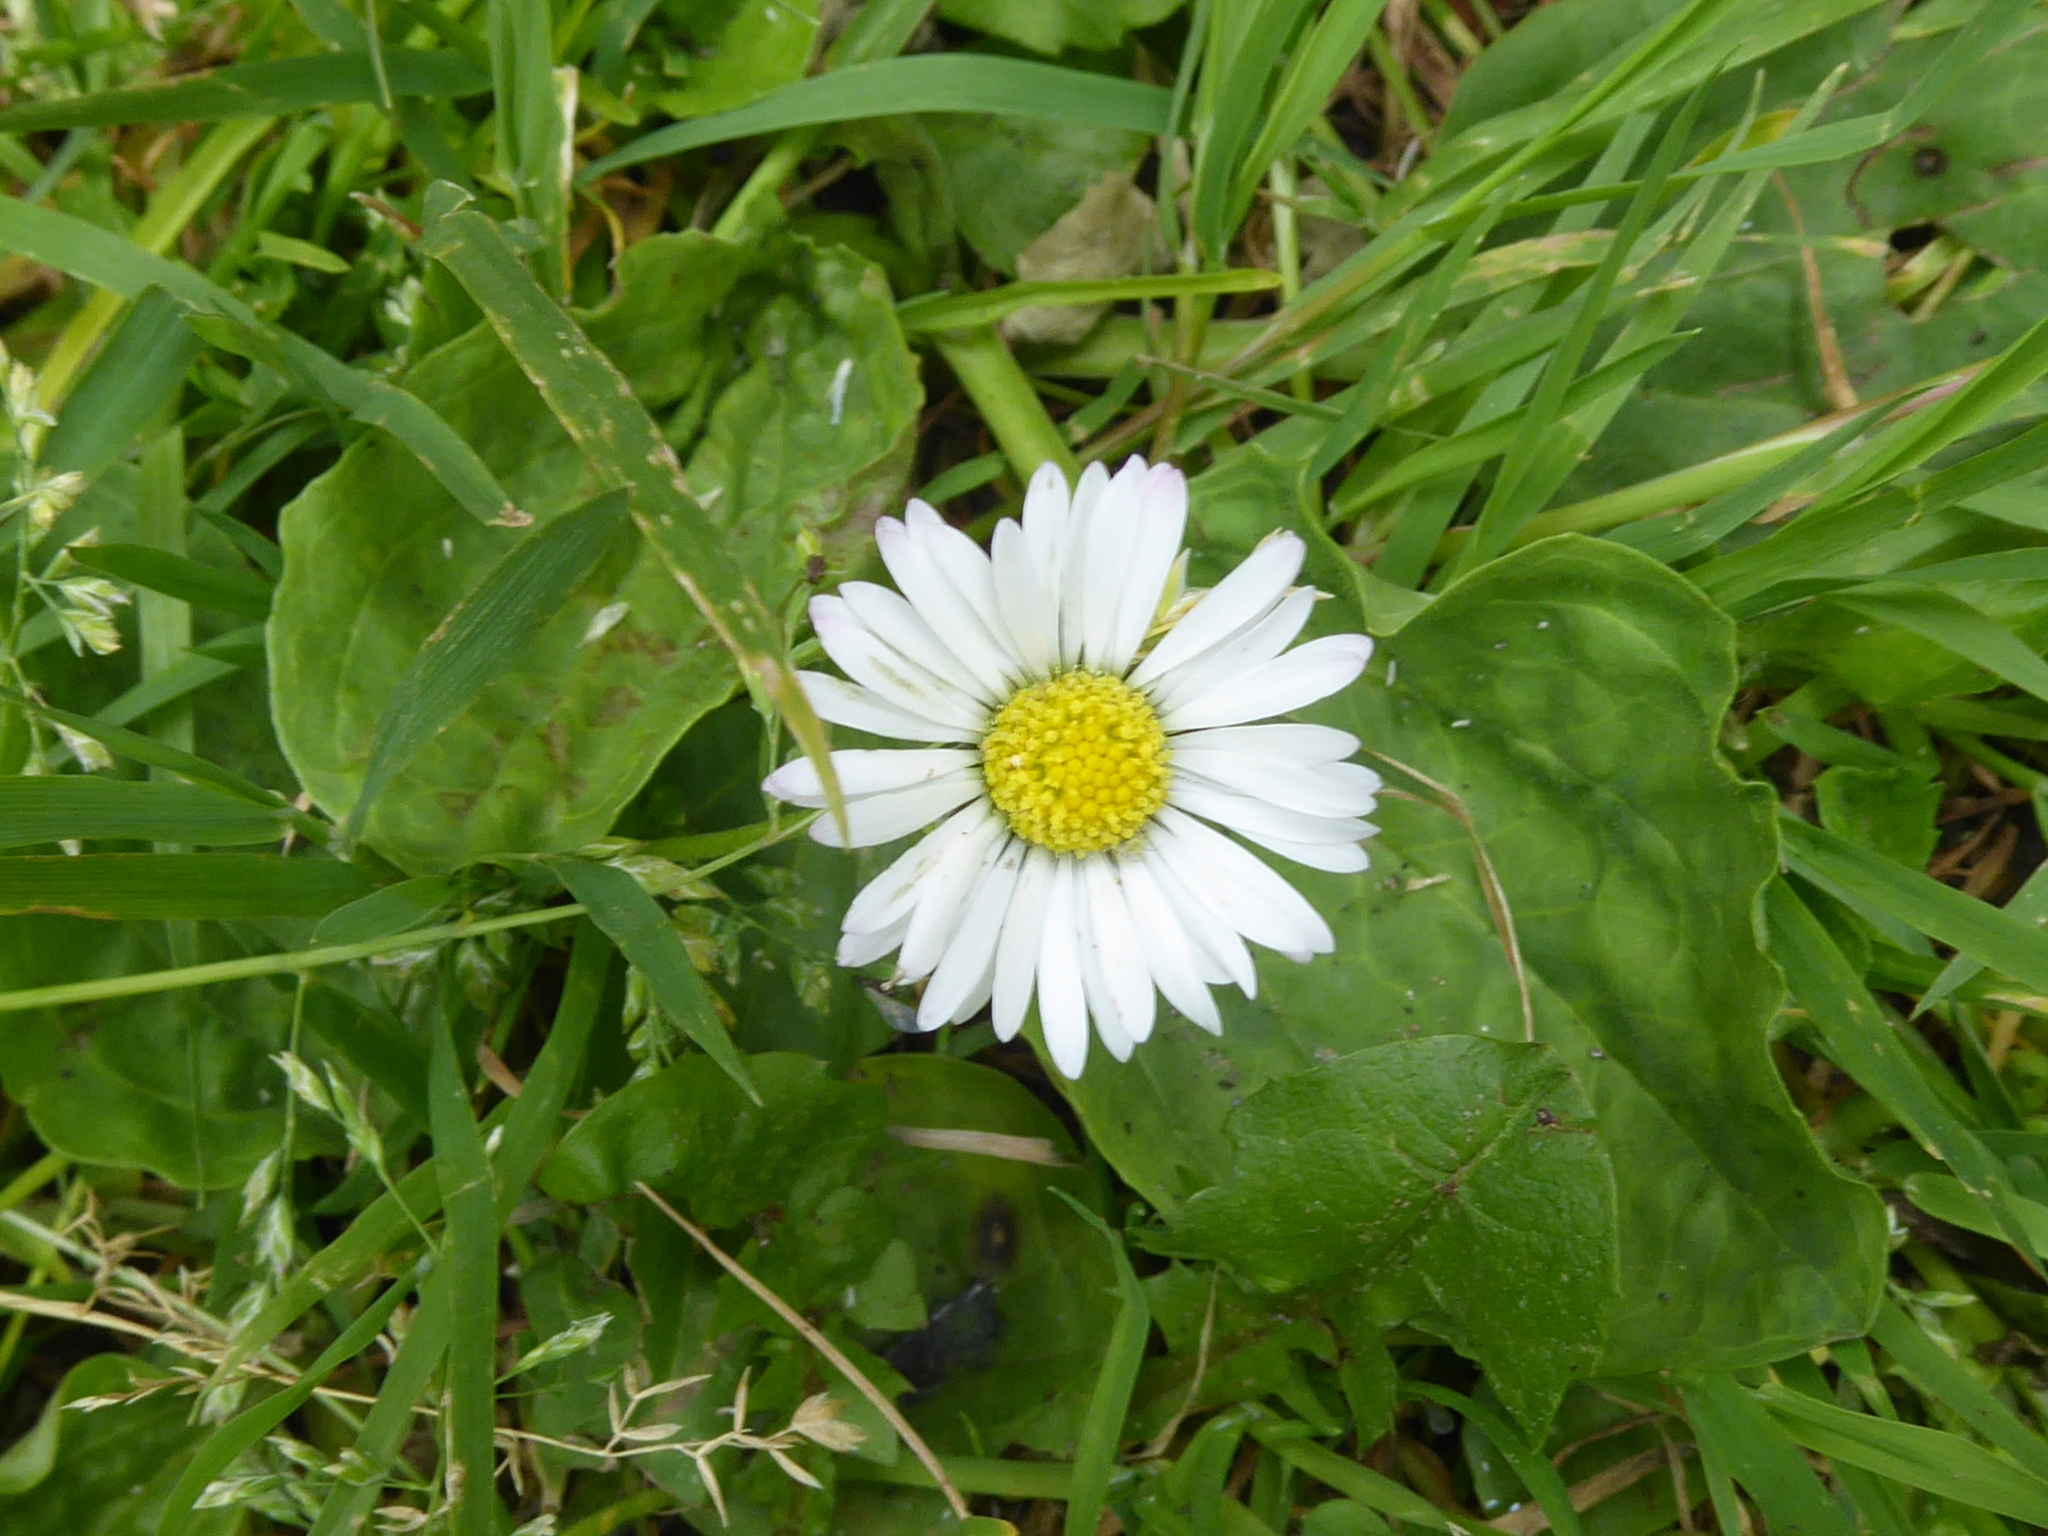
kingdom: Plantae
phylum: Tracheophyta
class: Magnoliopsida
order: Asterales
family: Asteraceae
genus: Bellis
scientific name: Bellis perennis
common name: Lawndaisy
